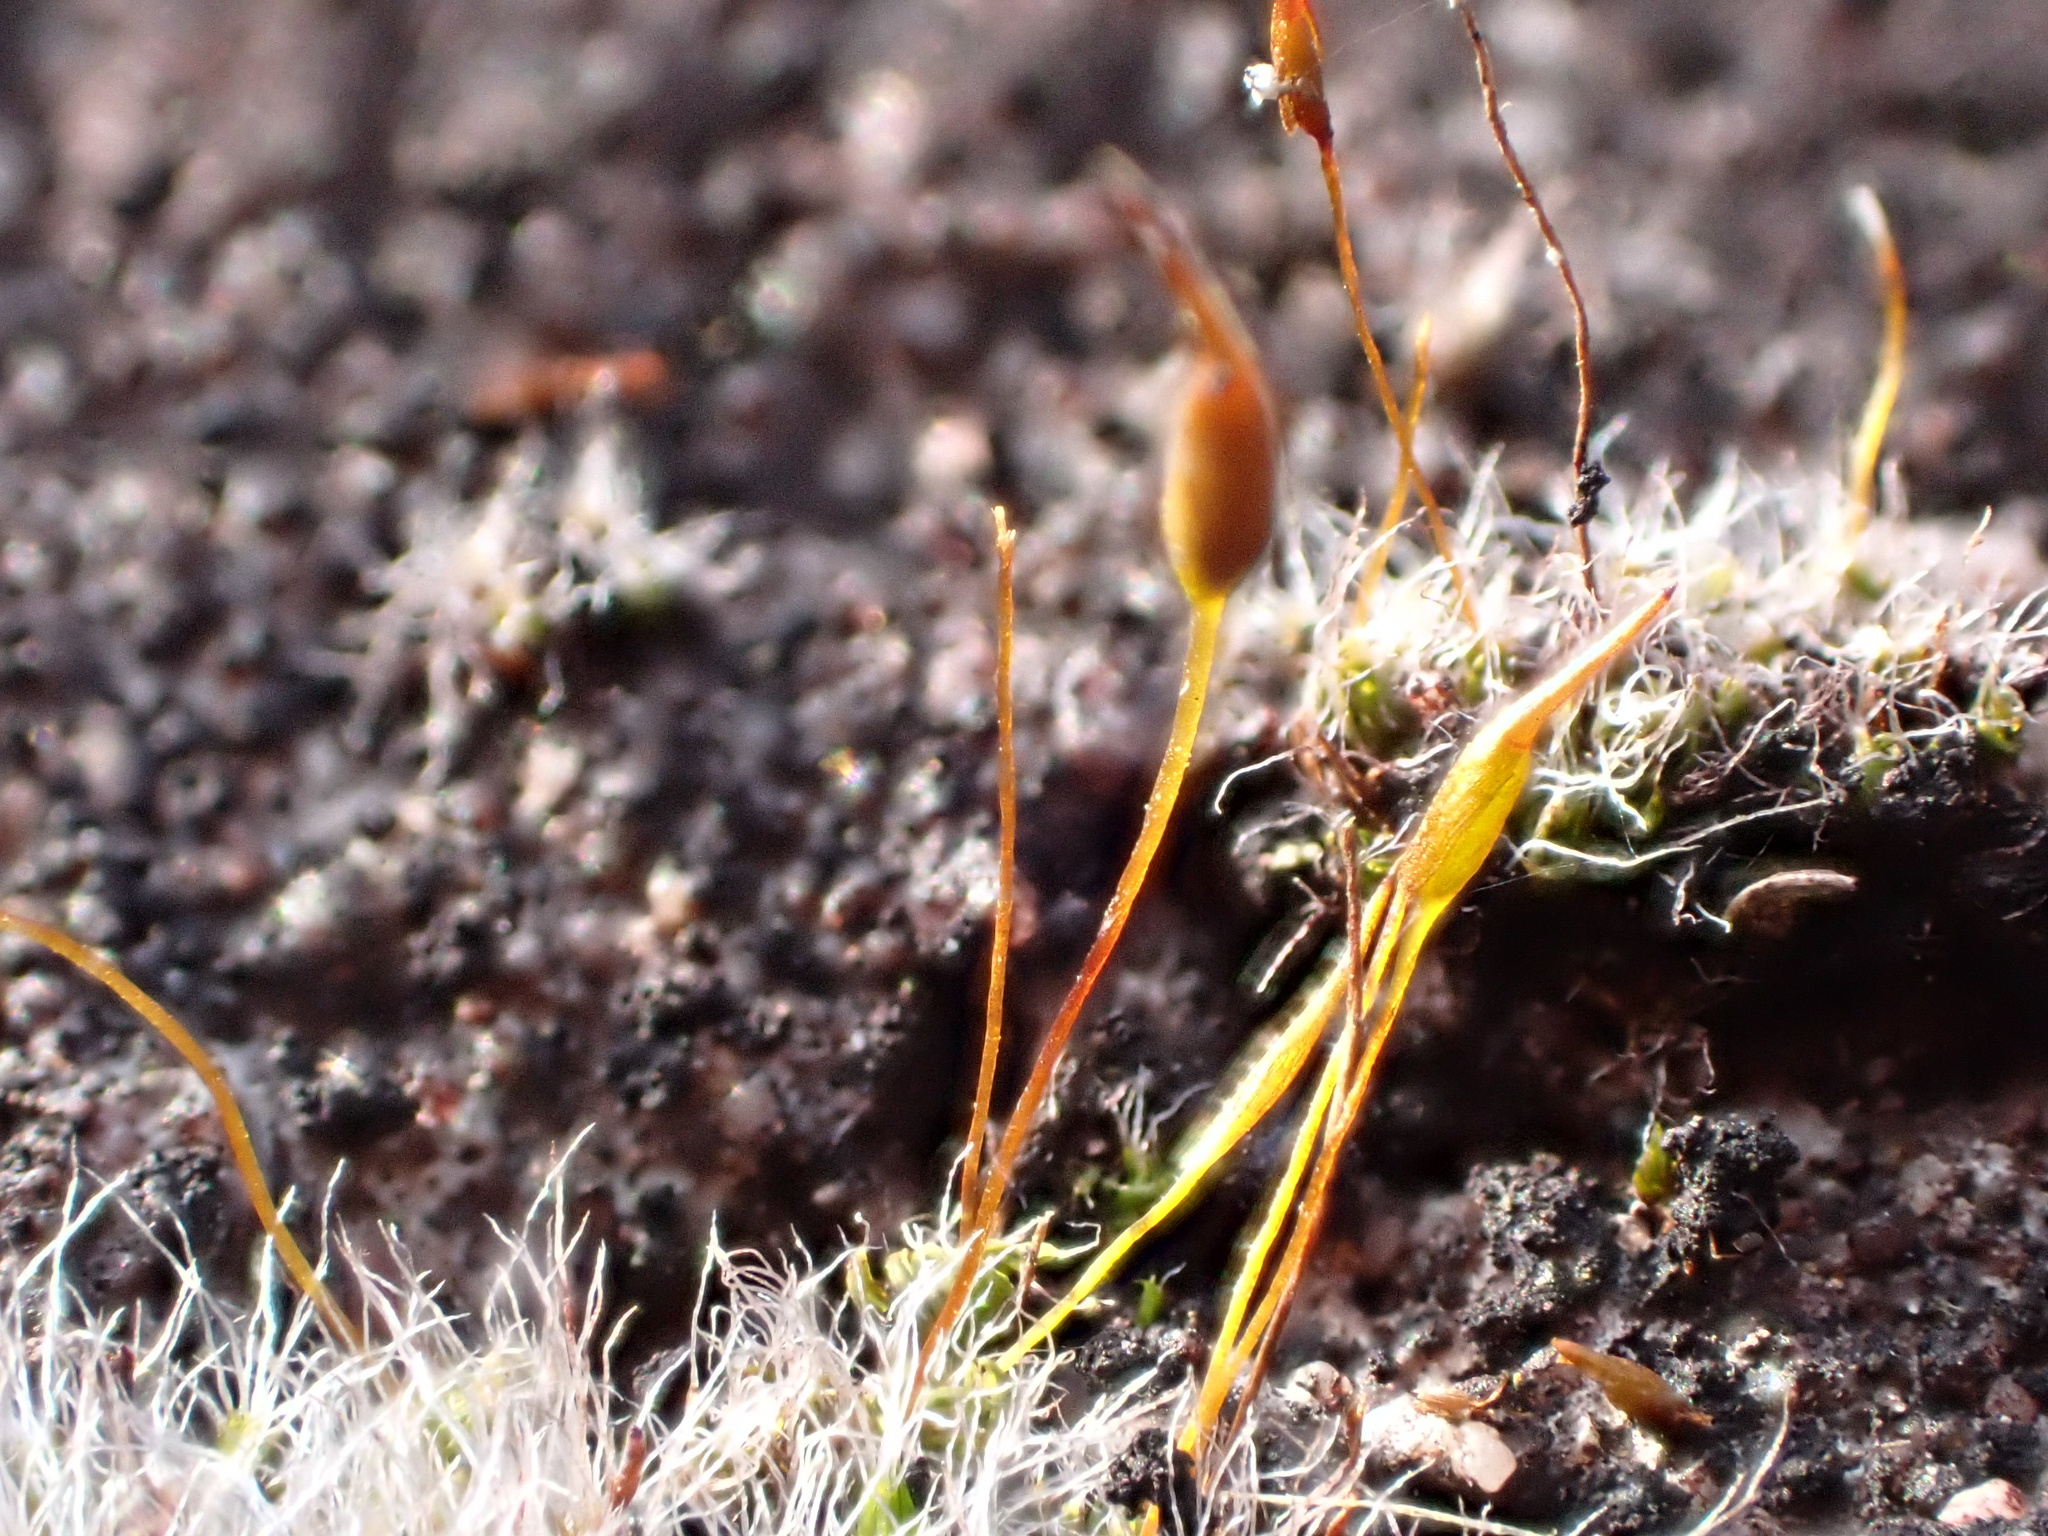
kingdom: Plantae
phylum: Bryophyta
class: Bryopsida
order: Grimmiales
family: Grimmiaceae
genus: Grimmia
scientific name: Grimmia pulvinata
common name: Grey-cushioned grimmia
